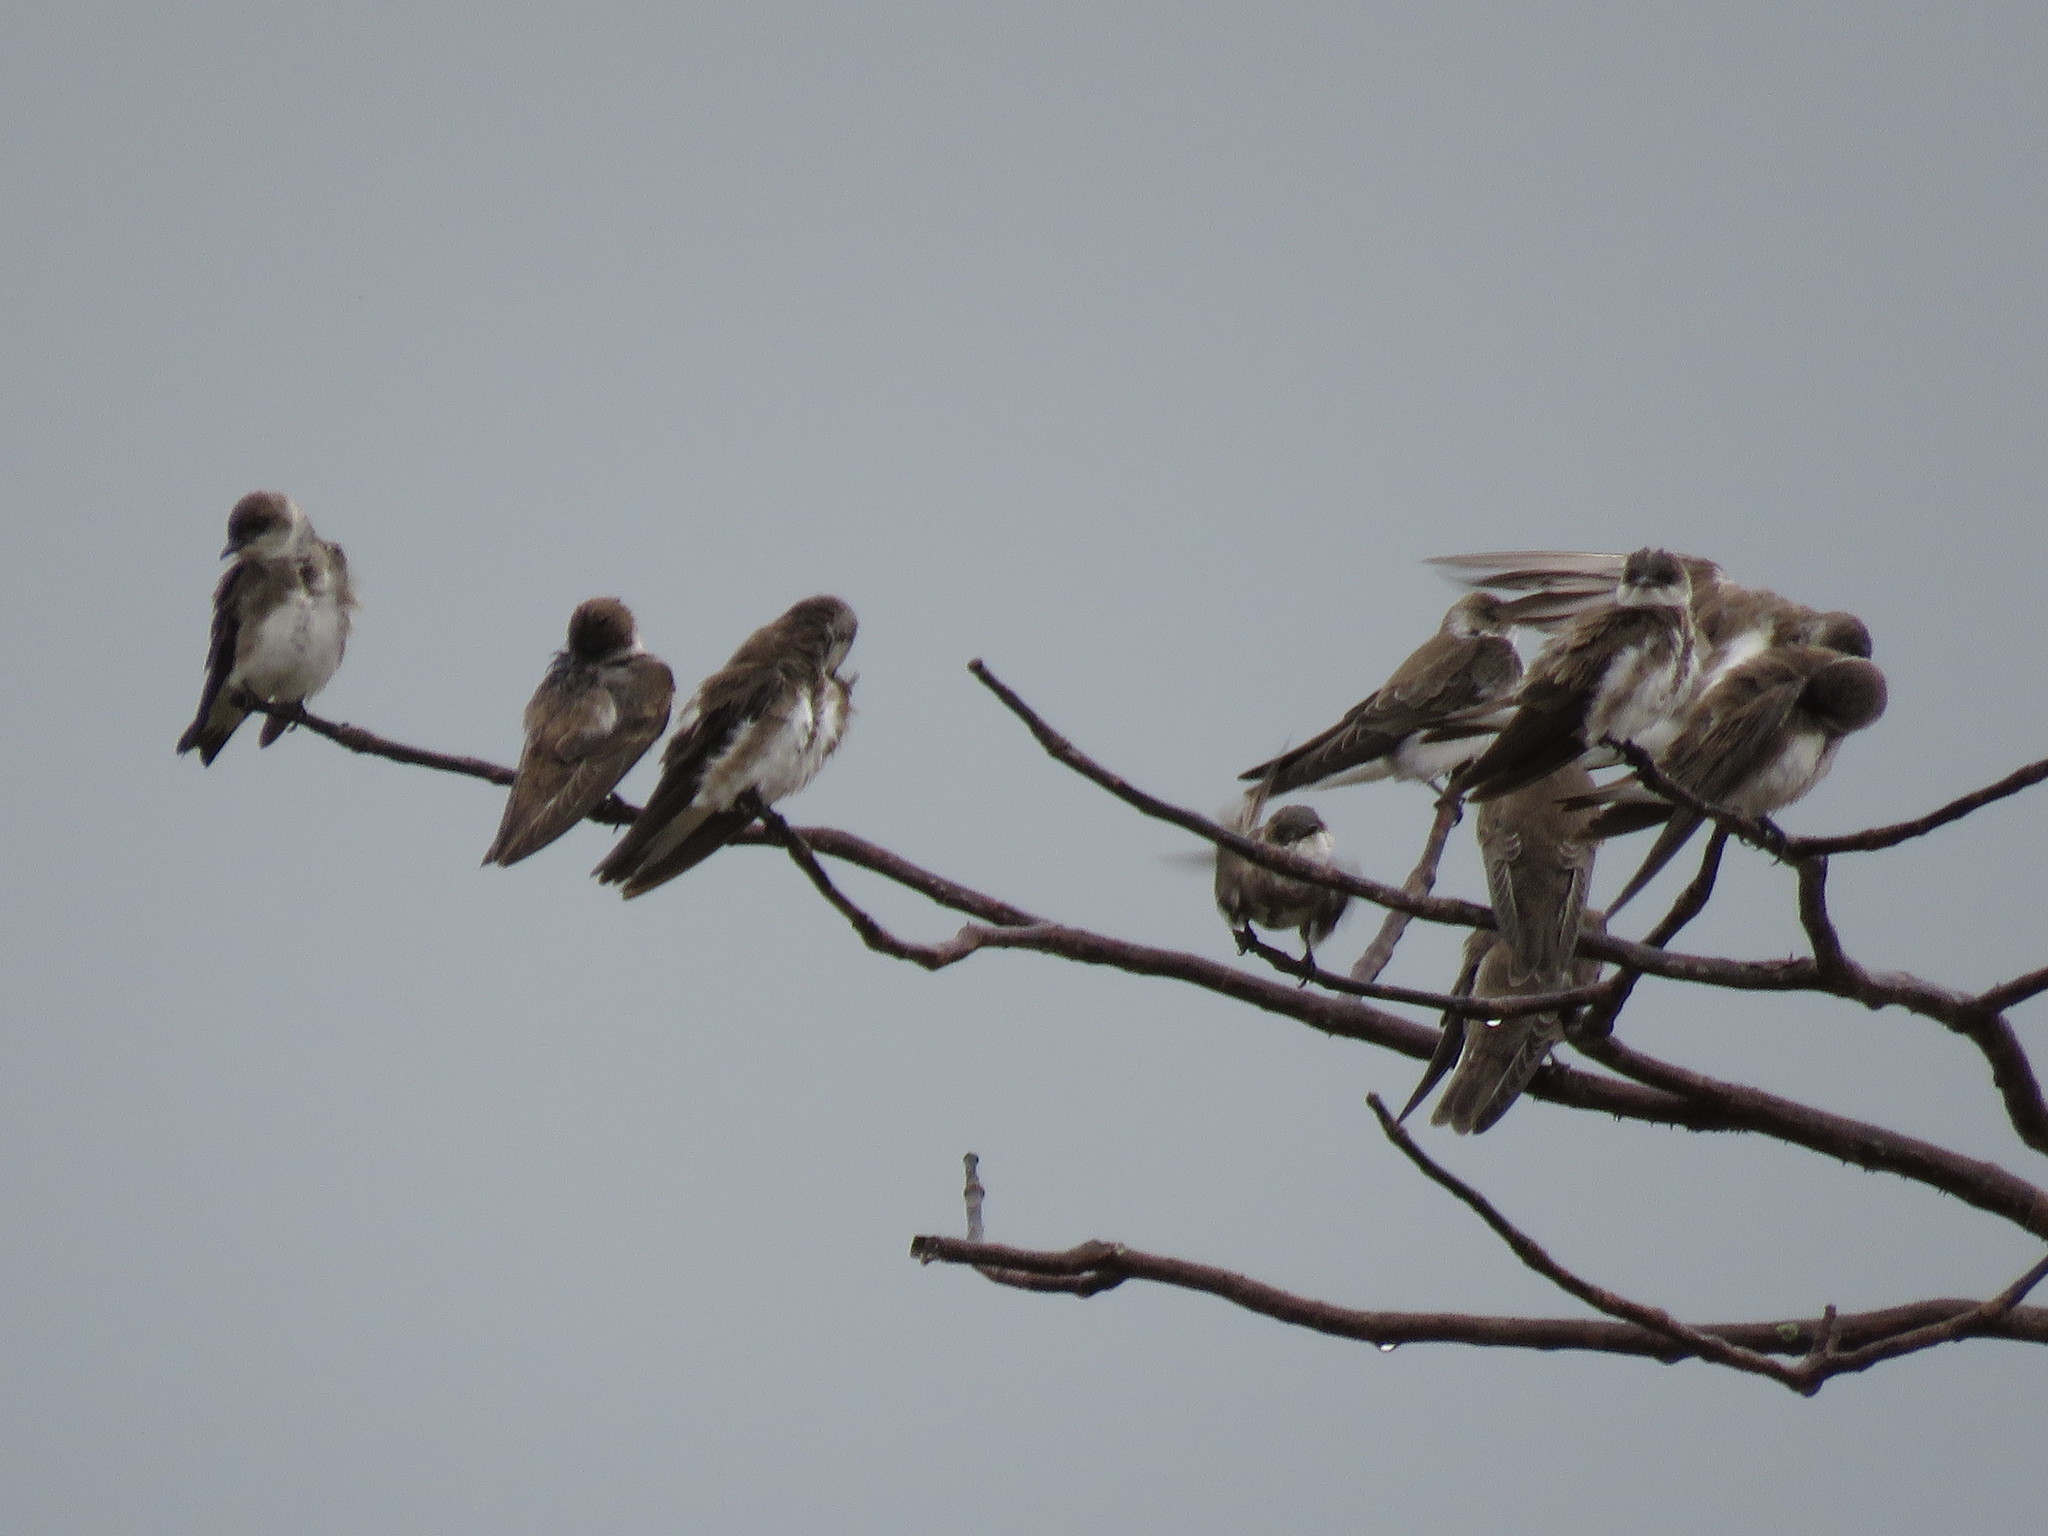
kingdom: Animalia
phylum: Chordata
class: Aves
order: Passeriformes
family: Hirundinidae
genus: Progne
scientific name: Progne tapera
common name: Brown-chested martin
